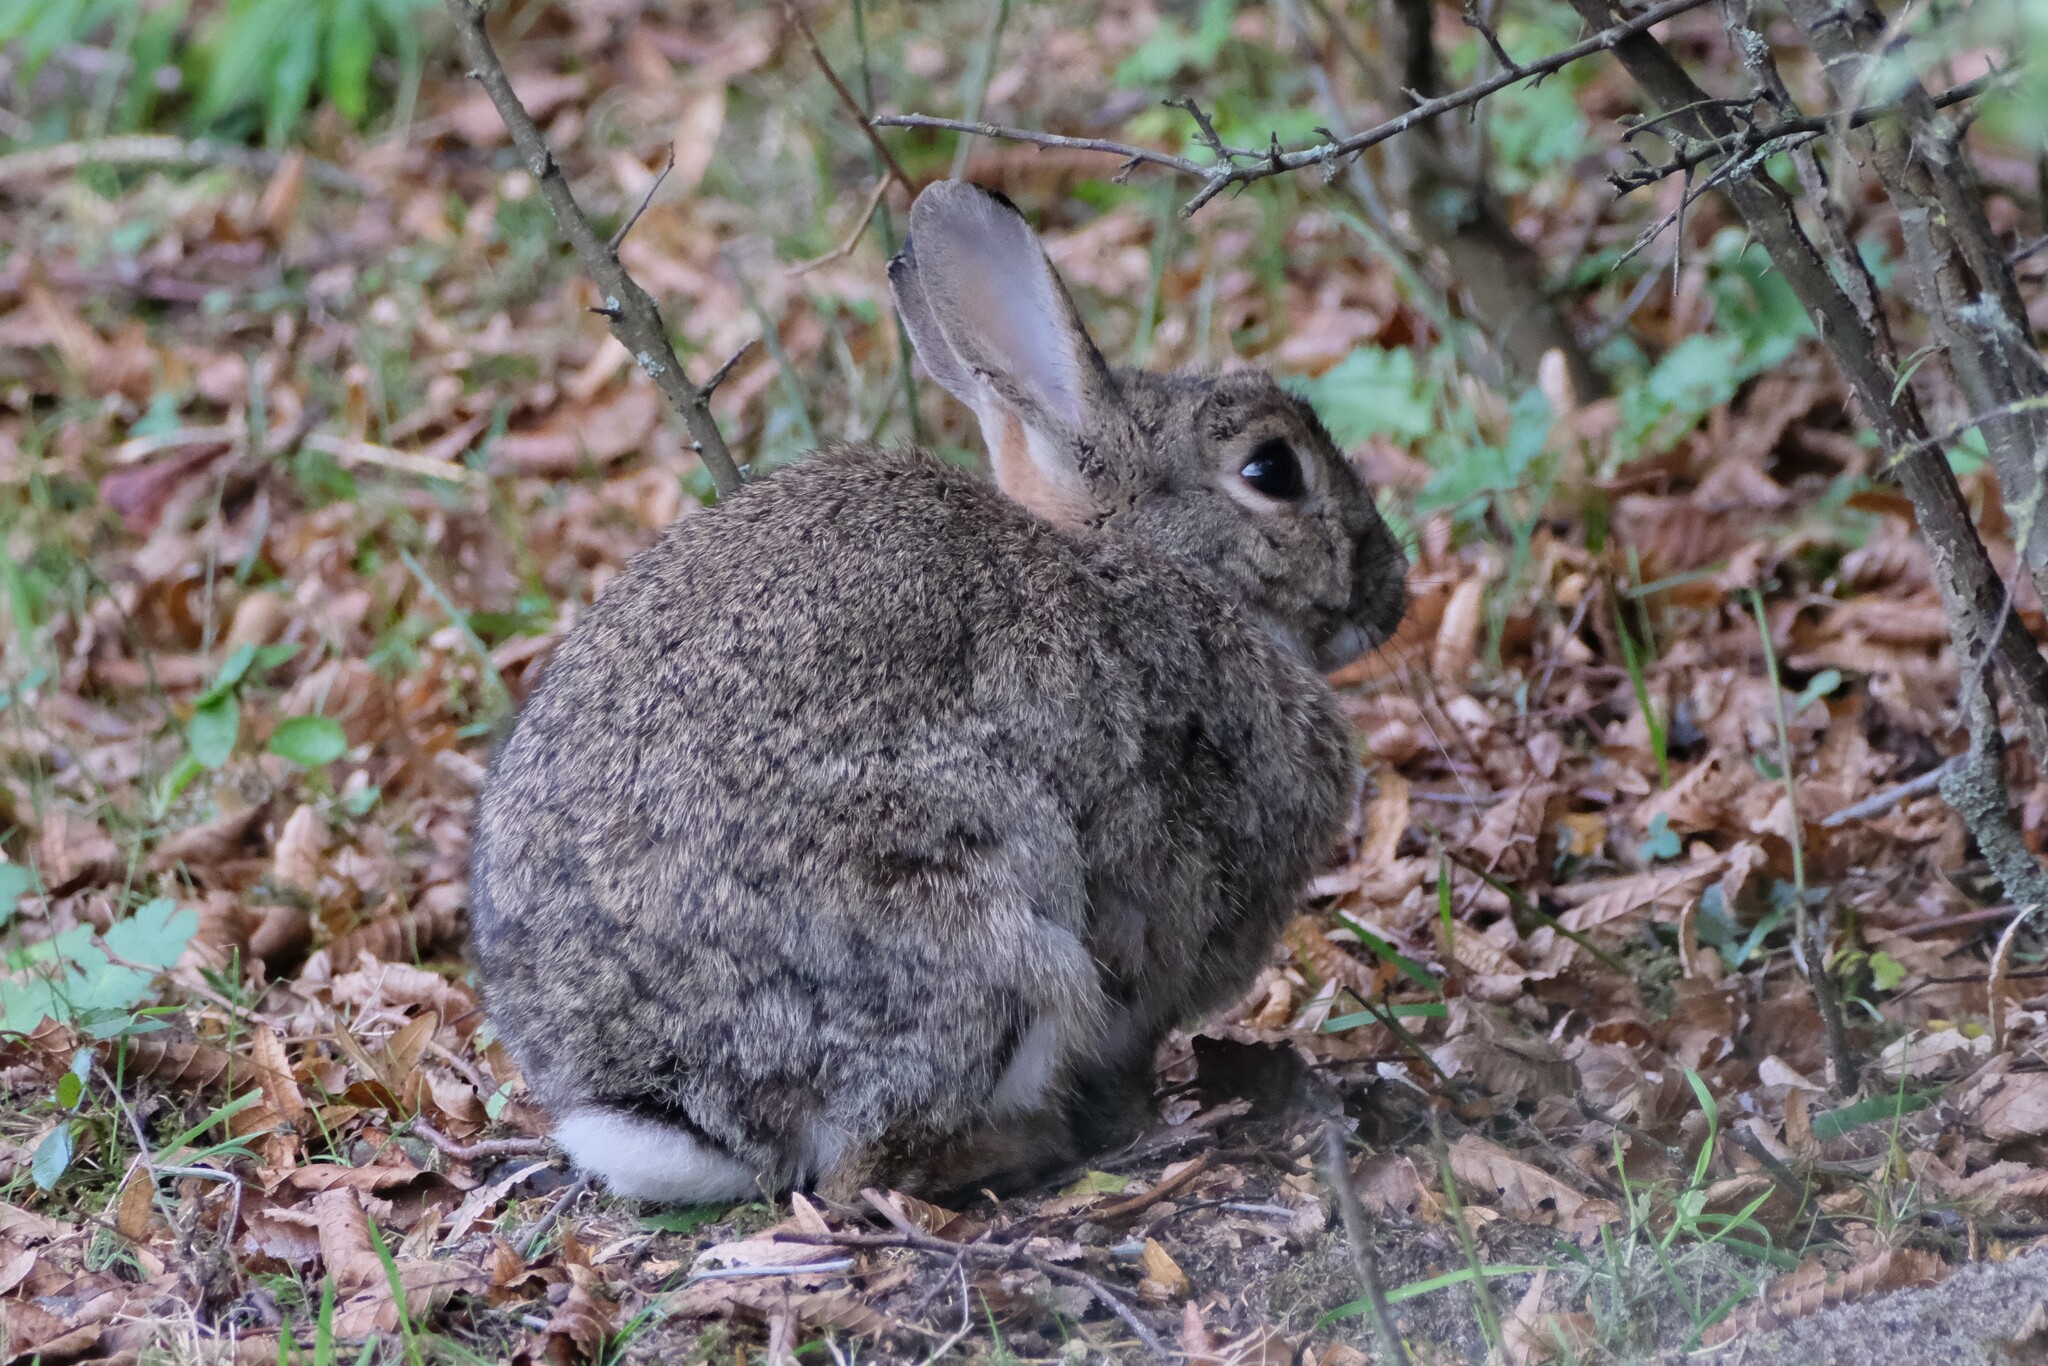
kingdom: Animalia
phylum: Chordata
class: Mammalia
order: Lagomorpha
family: Leporidae
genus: Oryctolagus
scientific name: Oryctolagus cuniculus
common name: European rabbit
